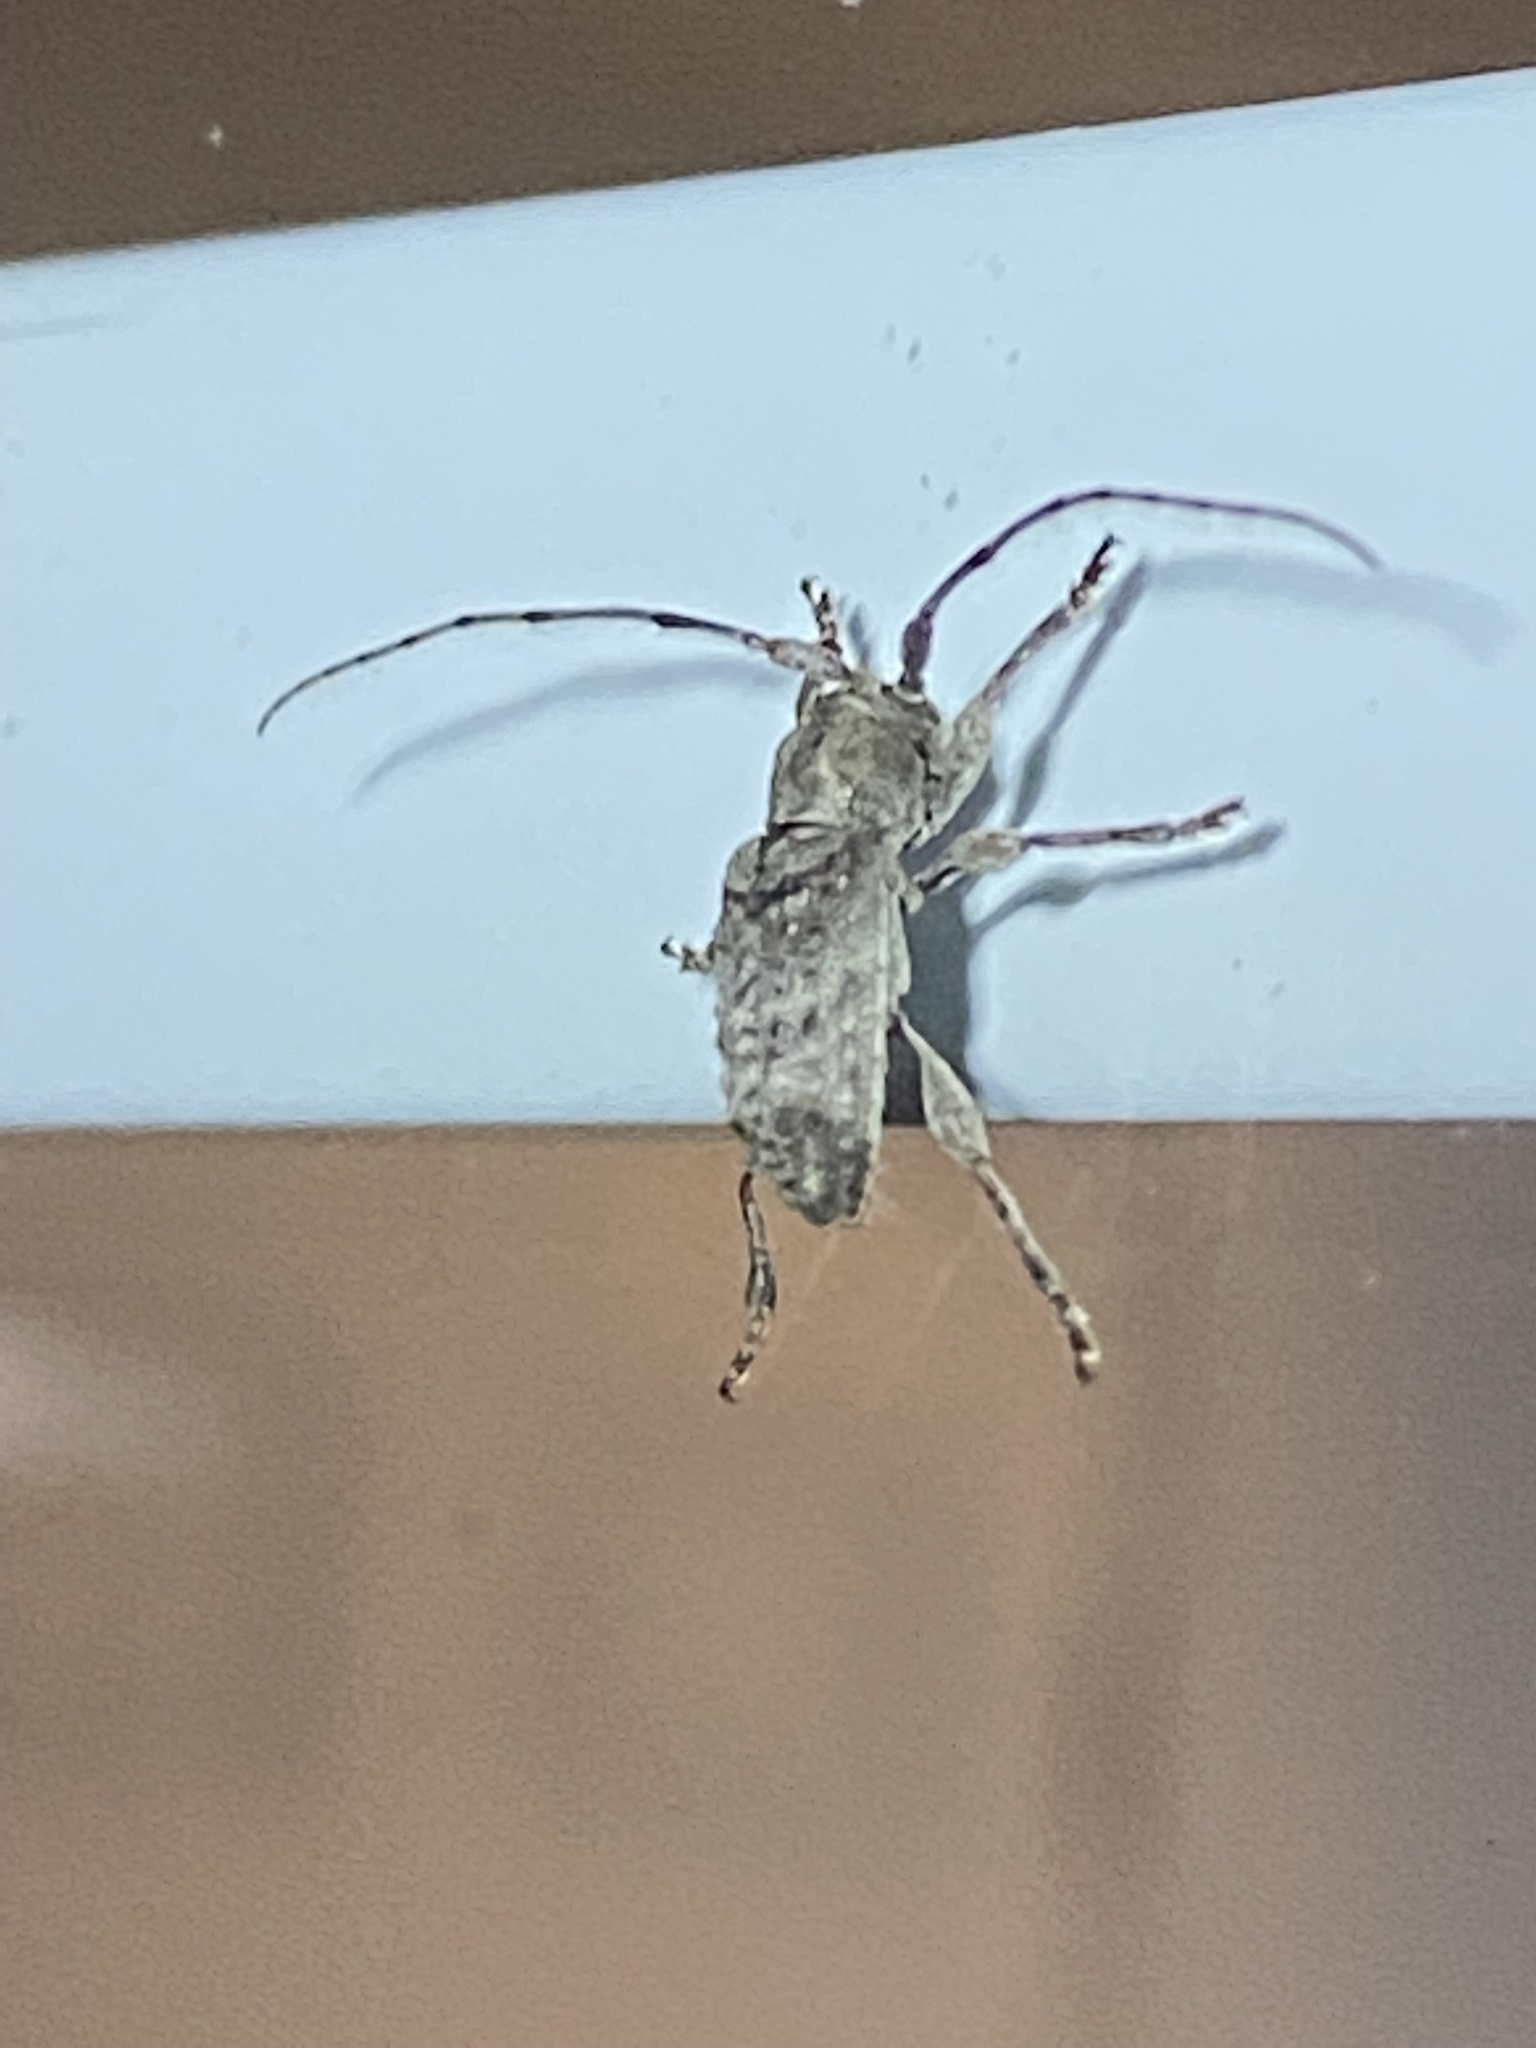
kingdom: Animalia
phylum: Arthropoda
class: Insecta
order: Coleoptera
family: Cerambycidae
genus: Ecyrus
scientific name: Ecyrus dasycerus
